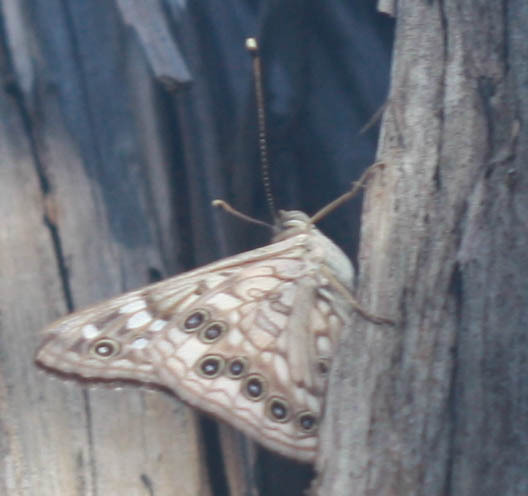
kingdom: Animalia
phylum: Arthropoda
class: Insecta
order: Lepidoptera
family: Nymphalidae
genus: Asterocampa
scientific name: Asterocampa celtis
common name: Hackberry emperor
